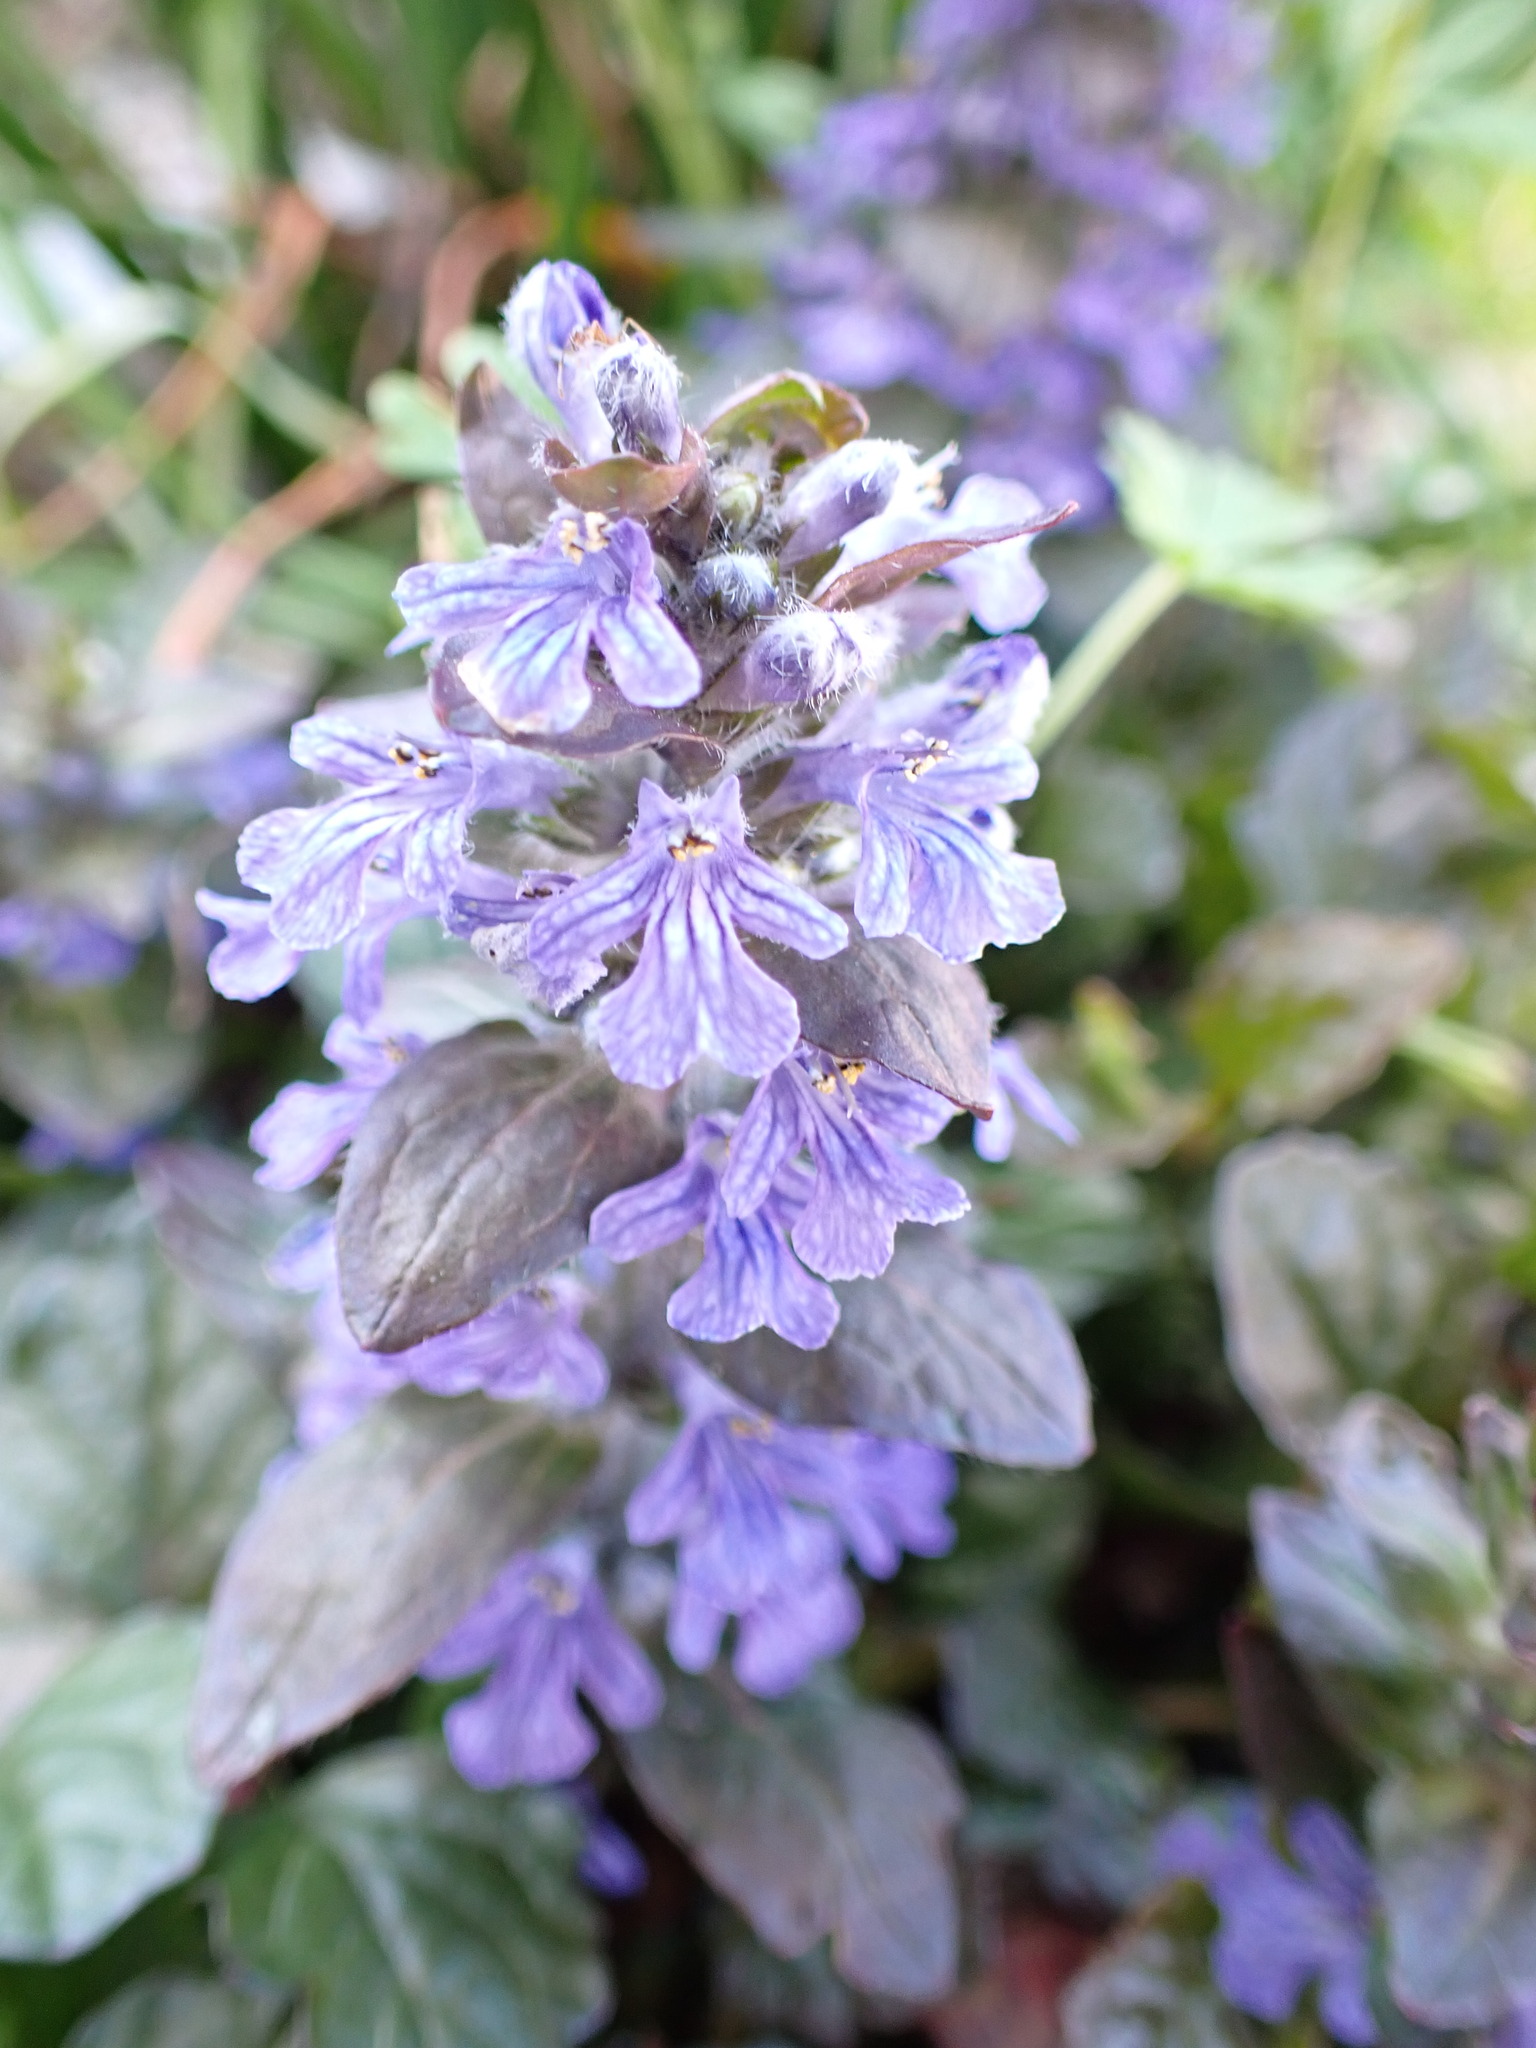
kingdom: Plantae
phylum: Tracheophyta
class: Magnoliopsida
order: Lamiales
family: Lamiaceae
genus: Ajuga
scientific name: Ajuga reptans
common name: Bugle
